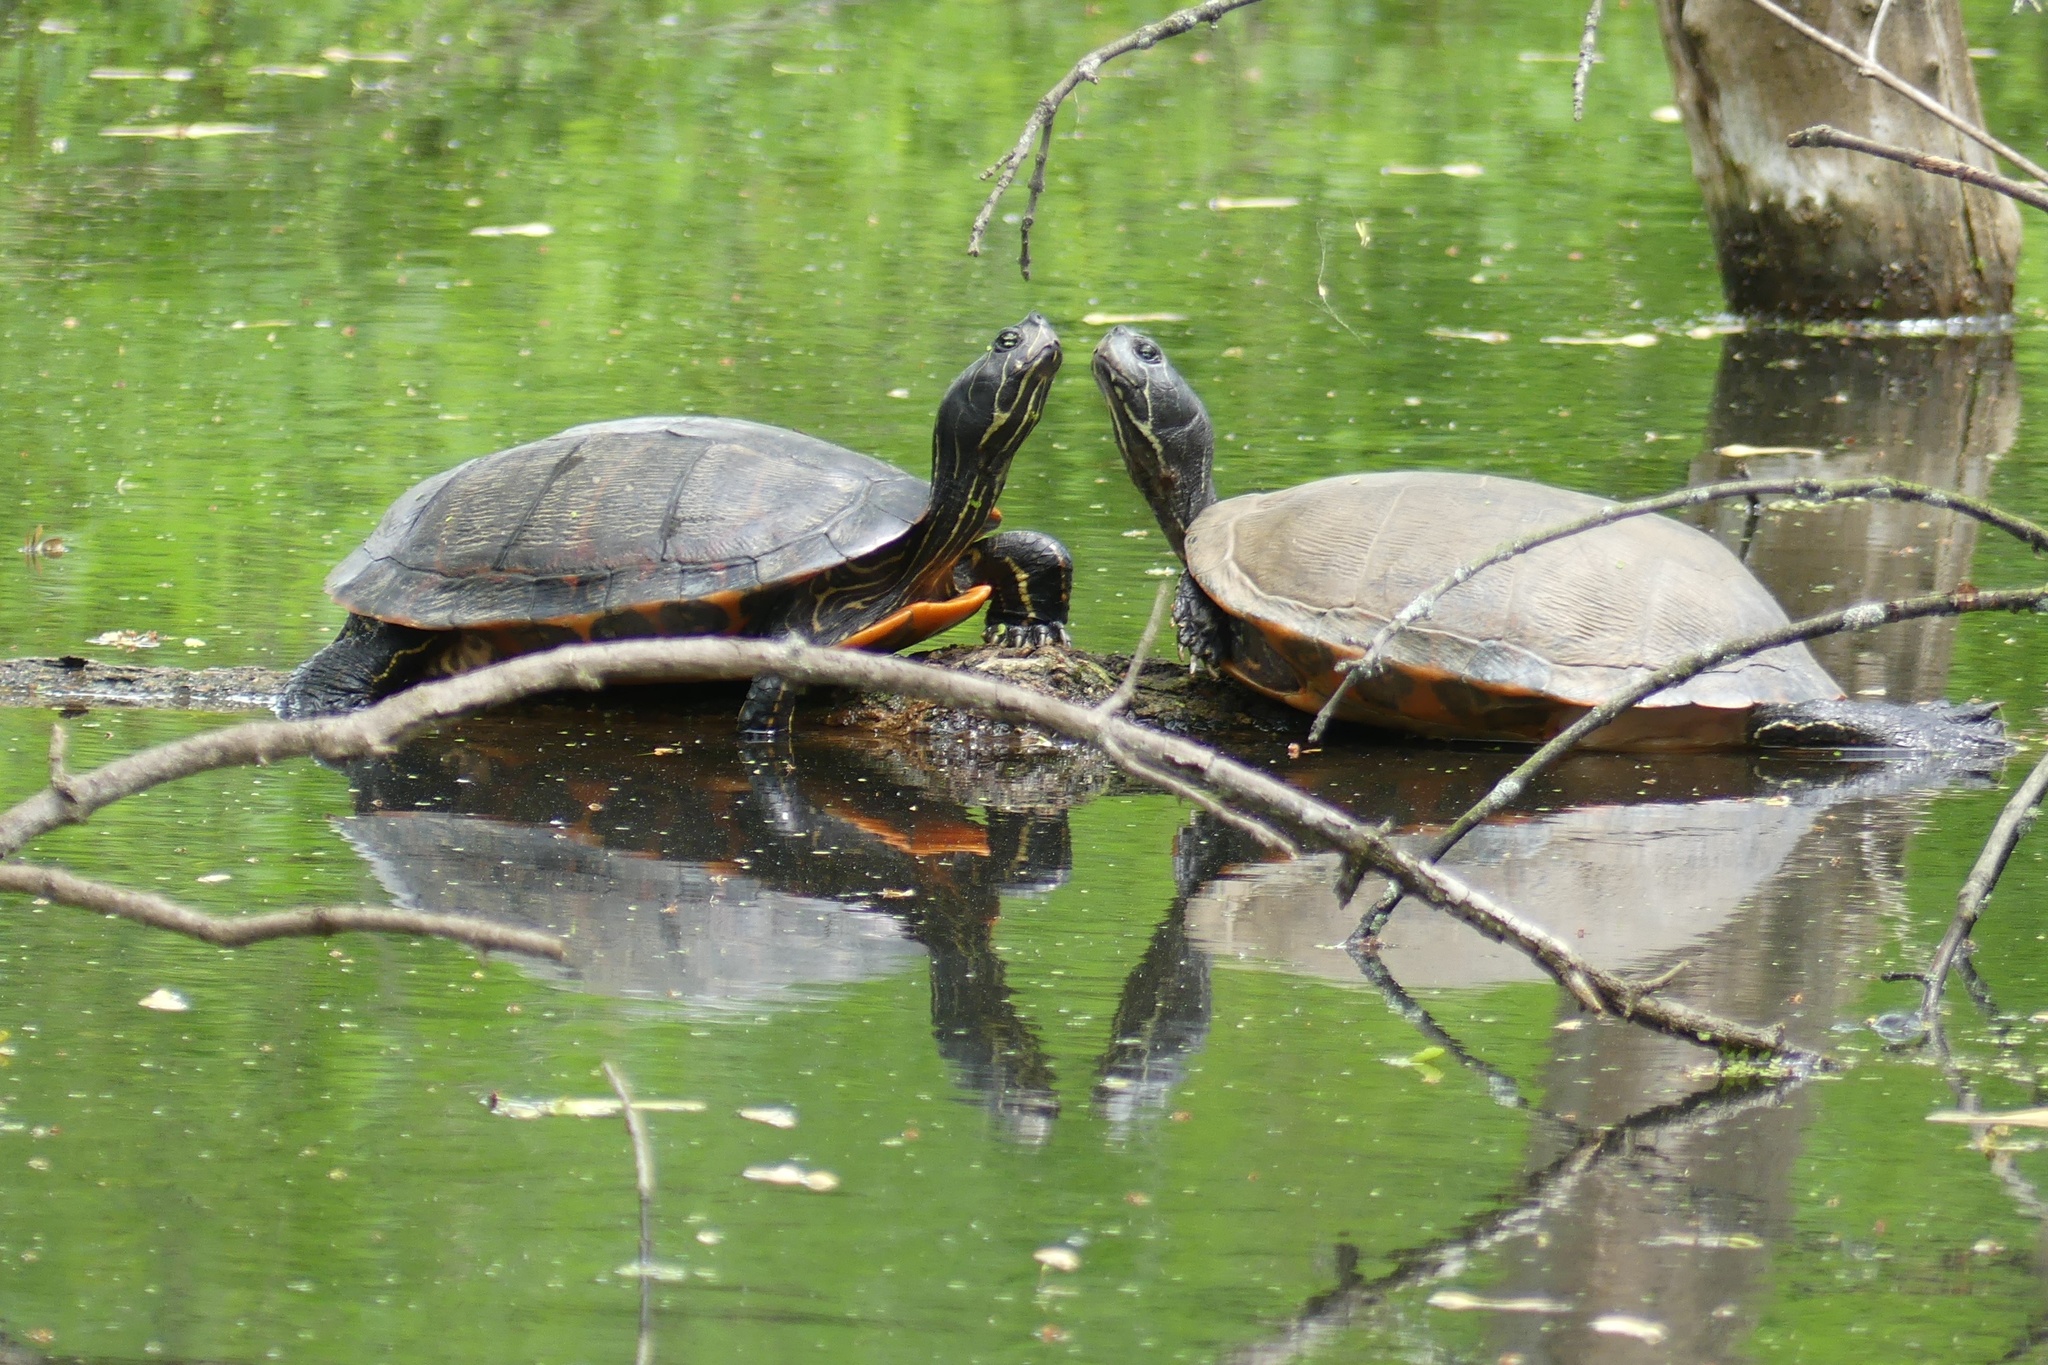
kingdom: Animalia
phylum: Chordata
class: Testudines
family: Emydidae
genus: Pseudemys
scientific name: Pseudemys rubriventris
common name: American red-bellied turtle
